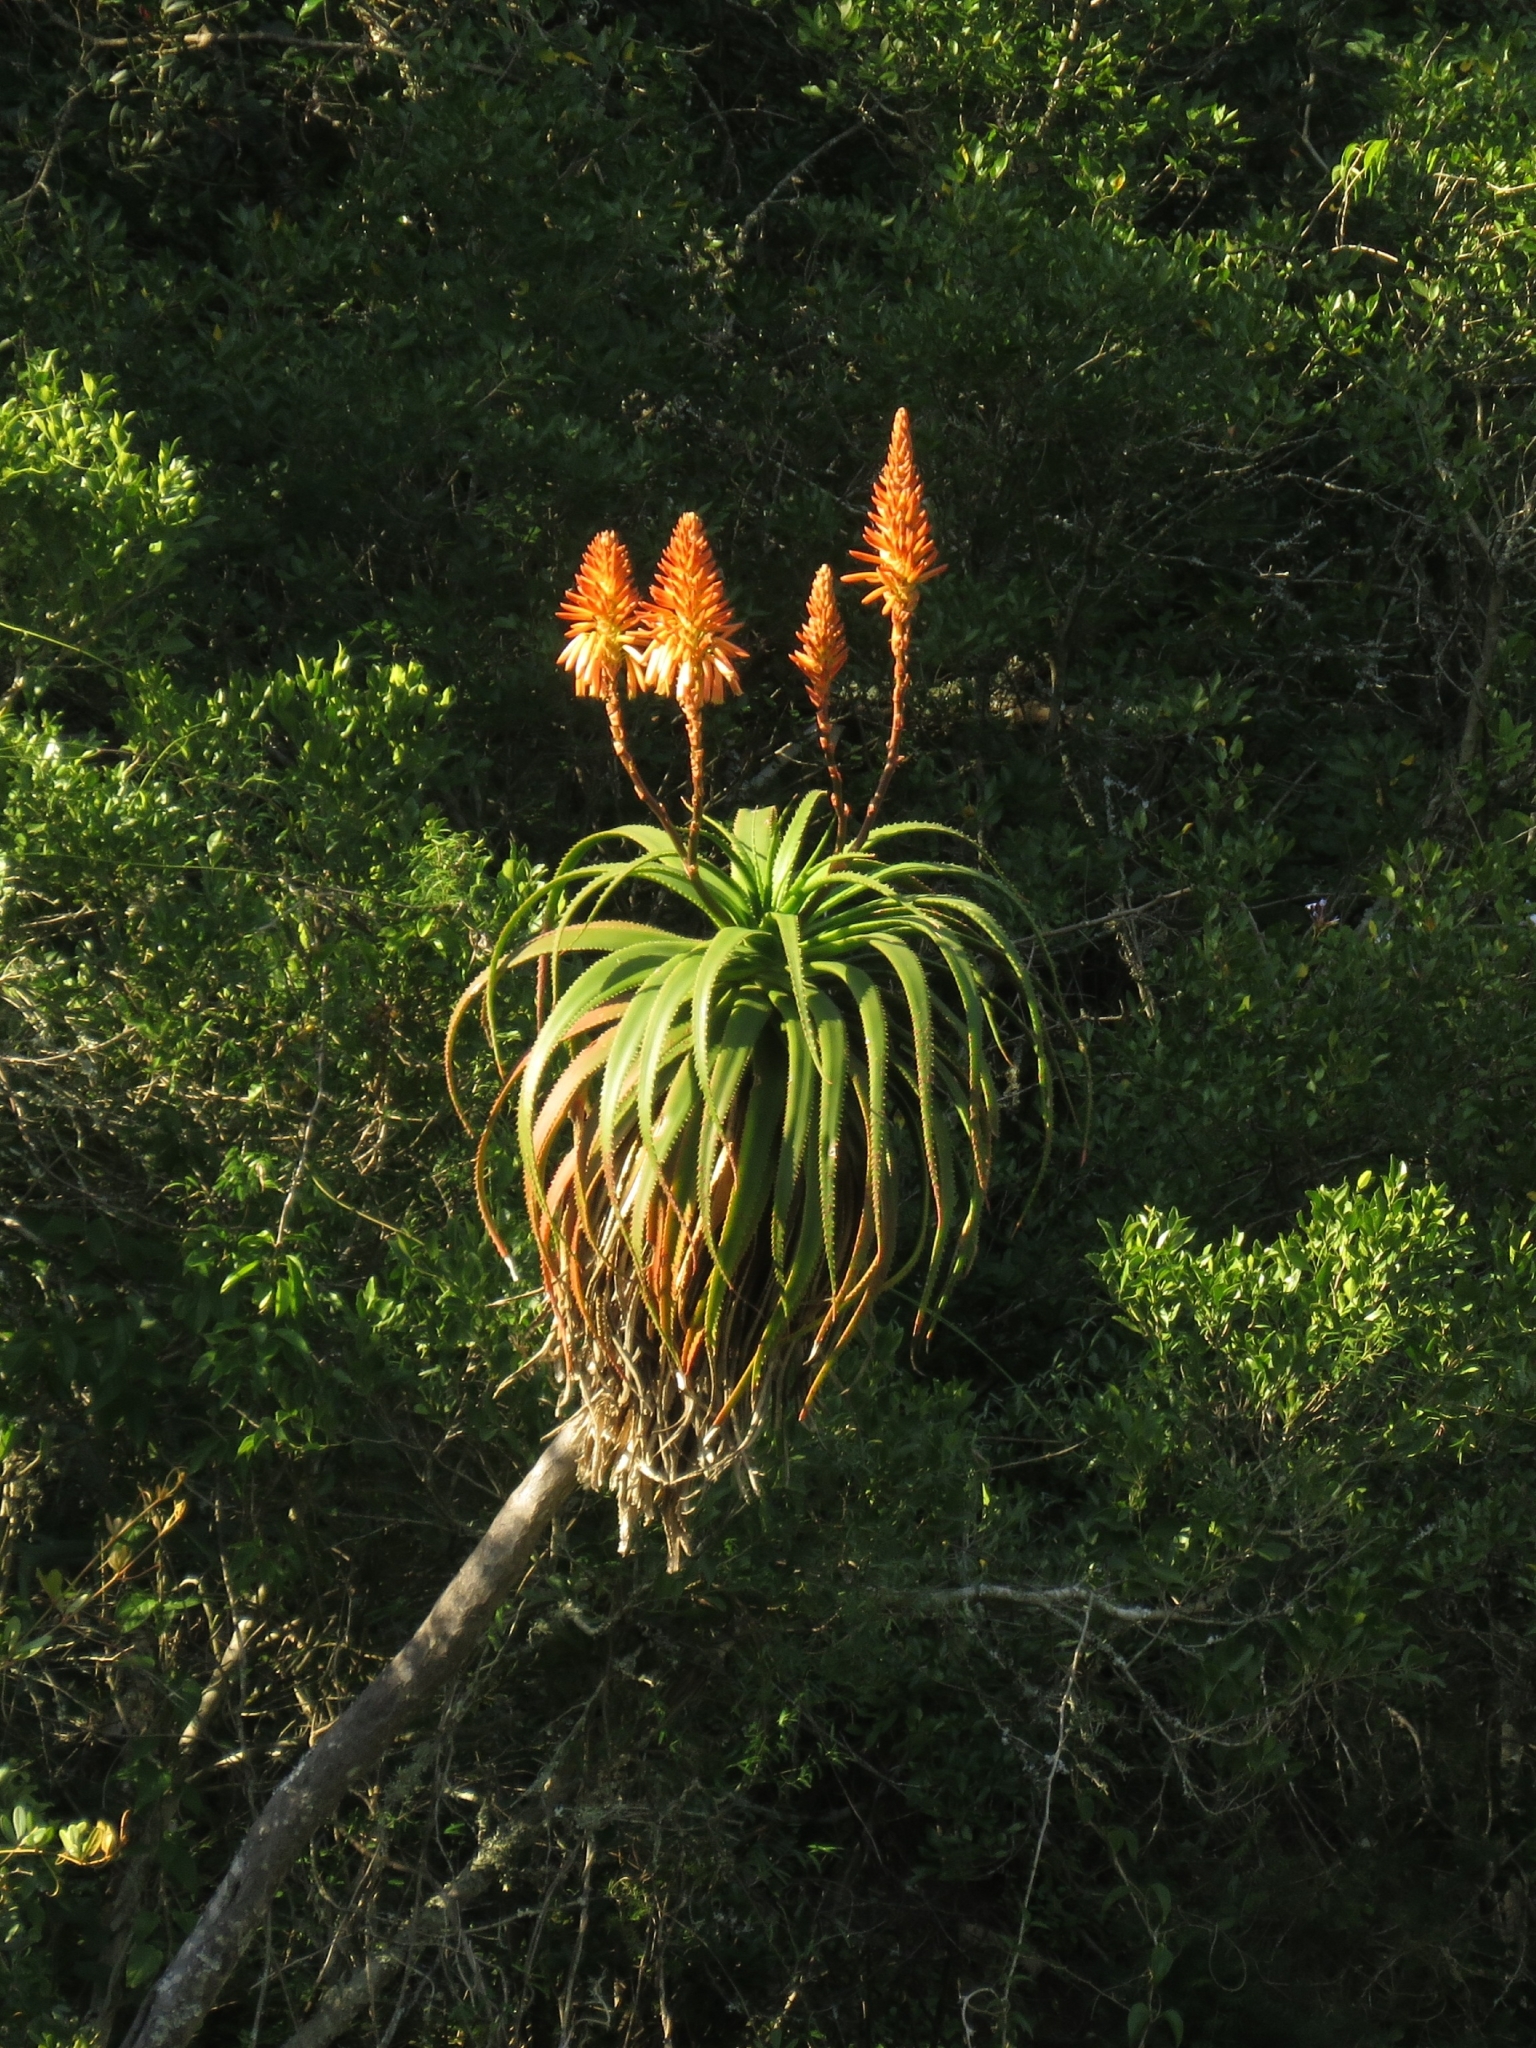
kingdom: Plantae
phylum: Tracheophyta
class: Liliopsida
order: Asparagales
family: Asphodelaceae
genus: Aloe
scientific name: Aloe pluridens
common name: French aloe
